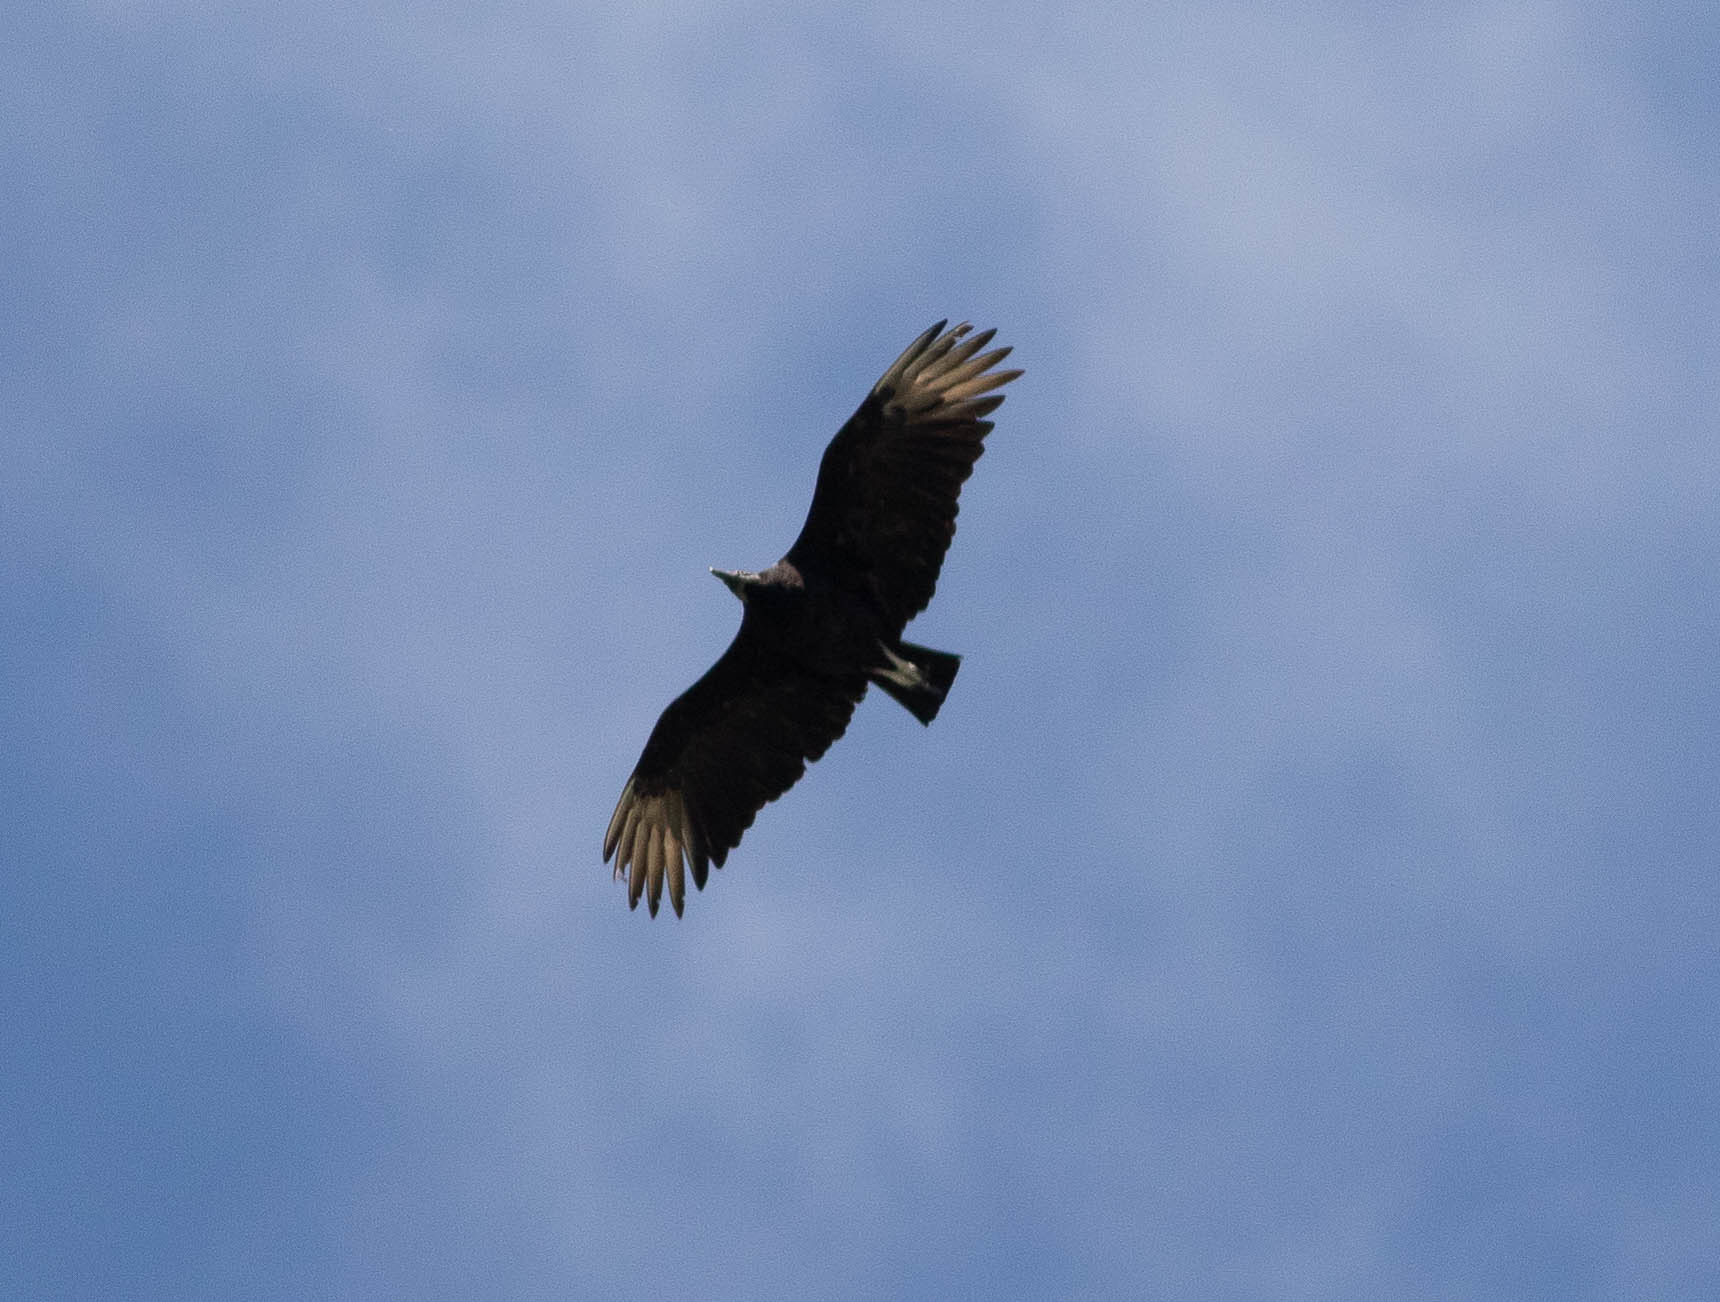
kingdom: Animalia
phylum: Chordata
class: Aves
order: Accipitriformes
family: Cathartidae
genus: Coragyps
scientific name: Coragyps atratus
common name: Black vulture
